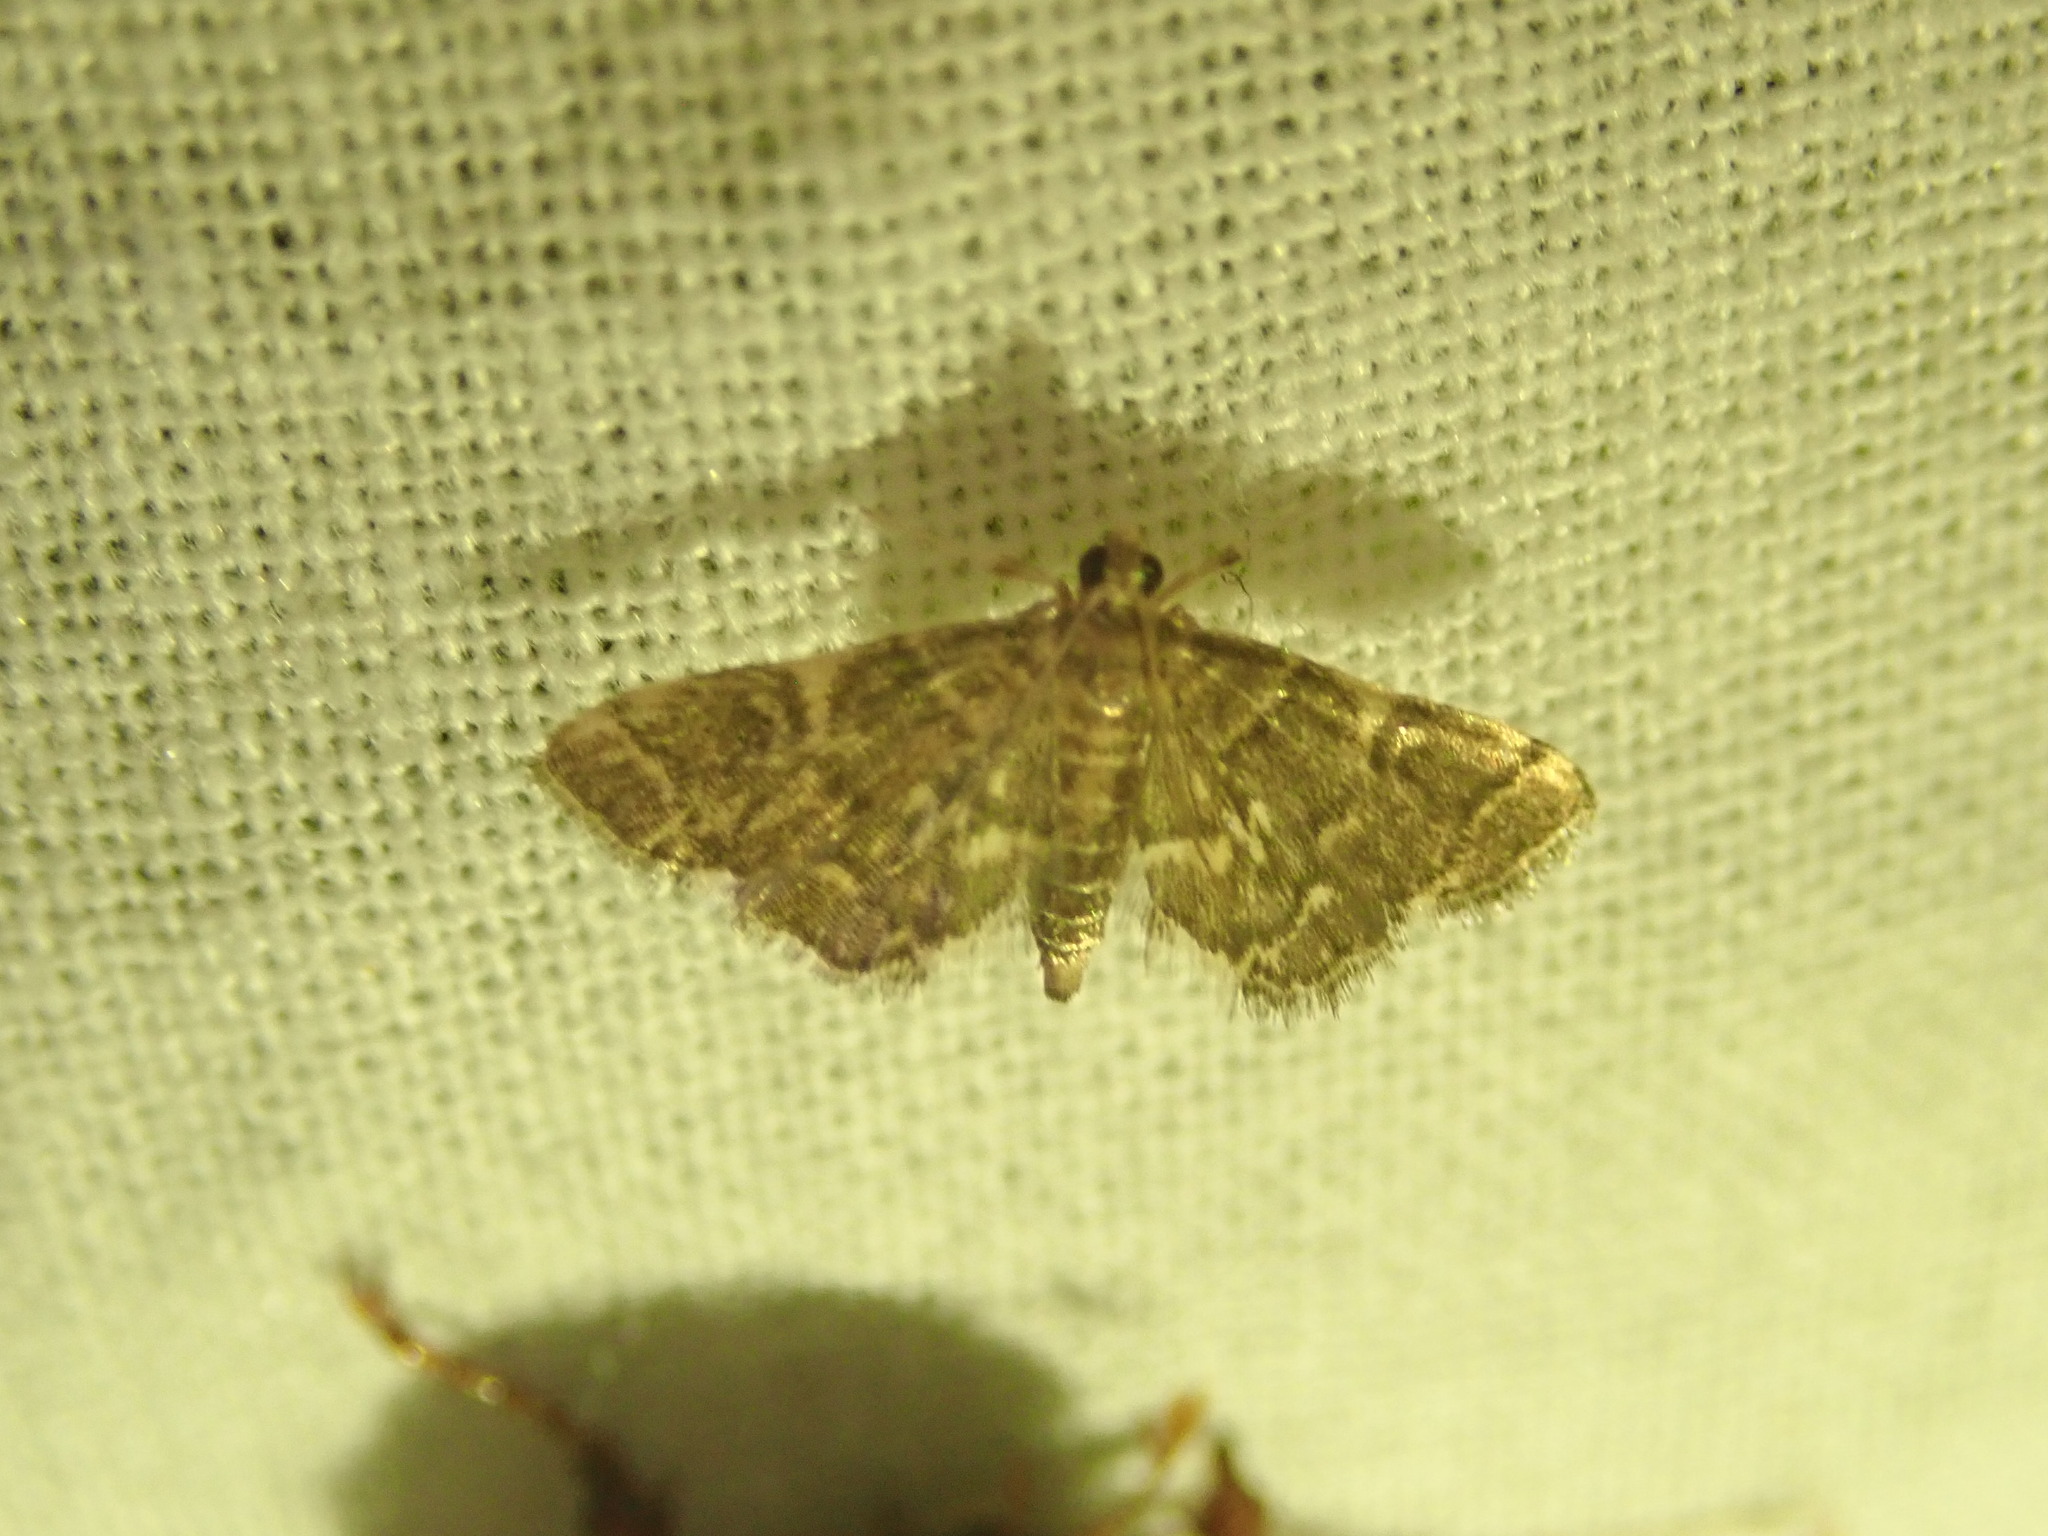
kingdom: Animalia
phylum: Arthropoda
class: Insecta
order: Lepidoptera
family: Crambidae
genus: Anageshna
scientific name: Anageshna primordialis
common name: Yellow-spotted webworm moth
